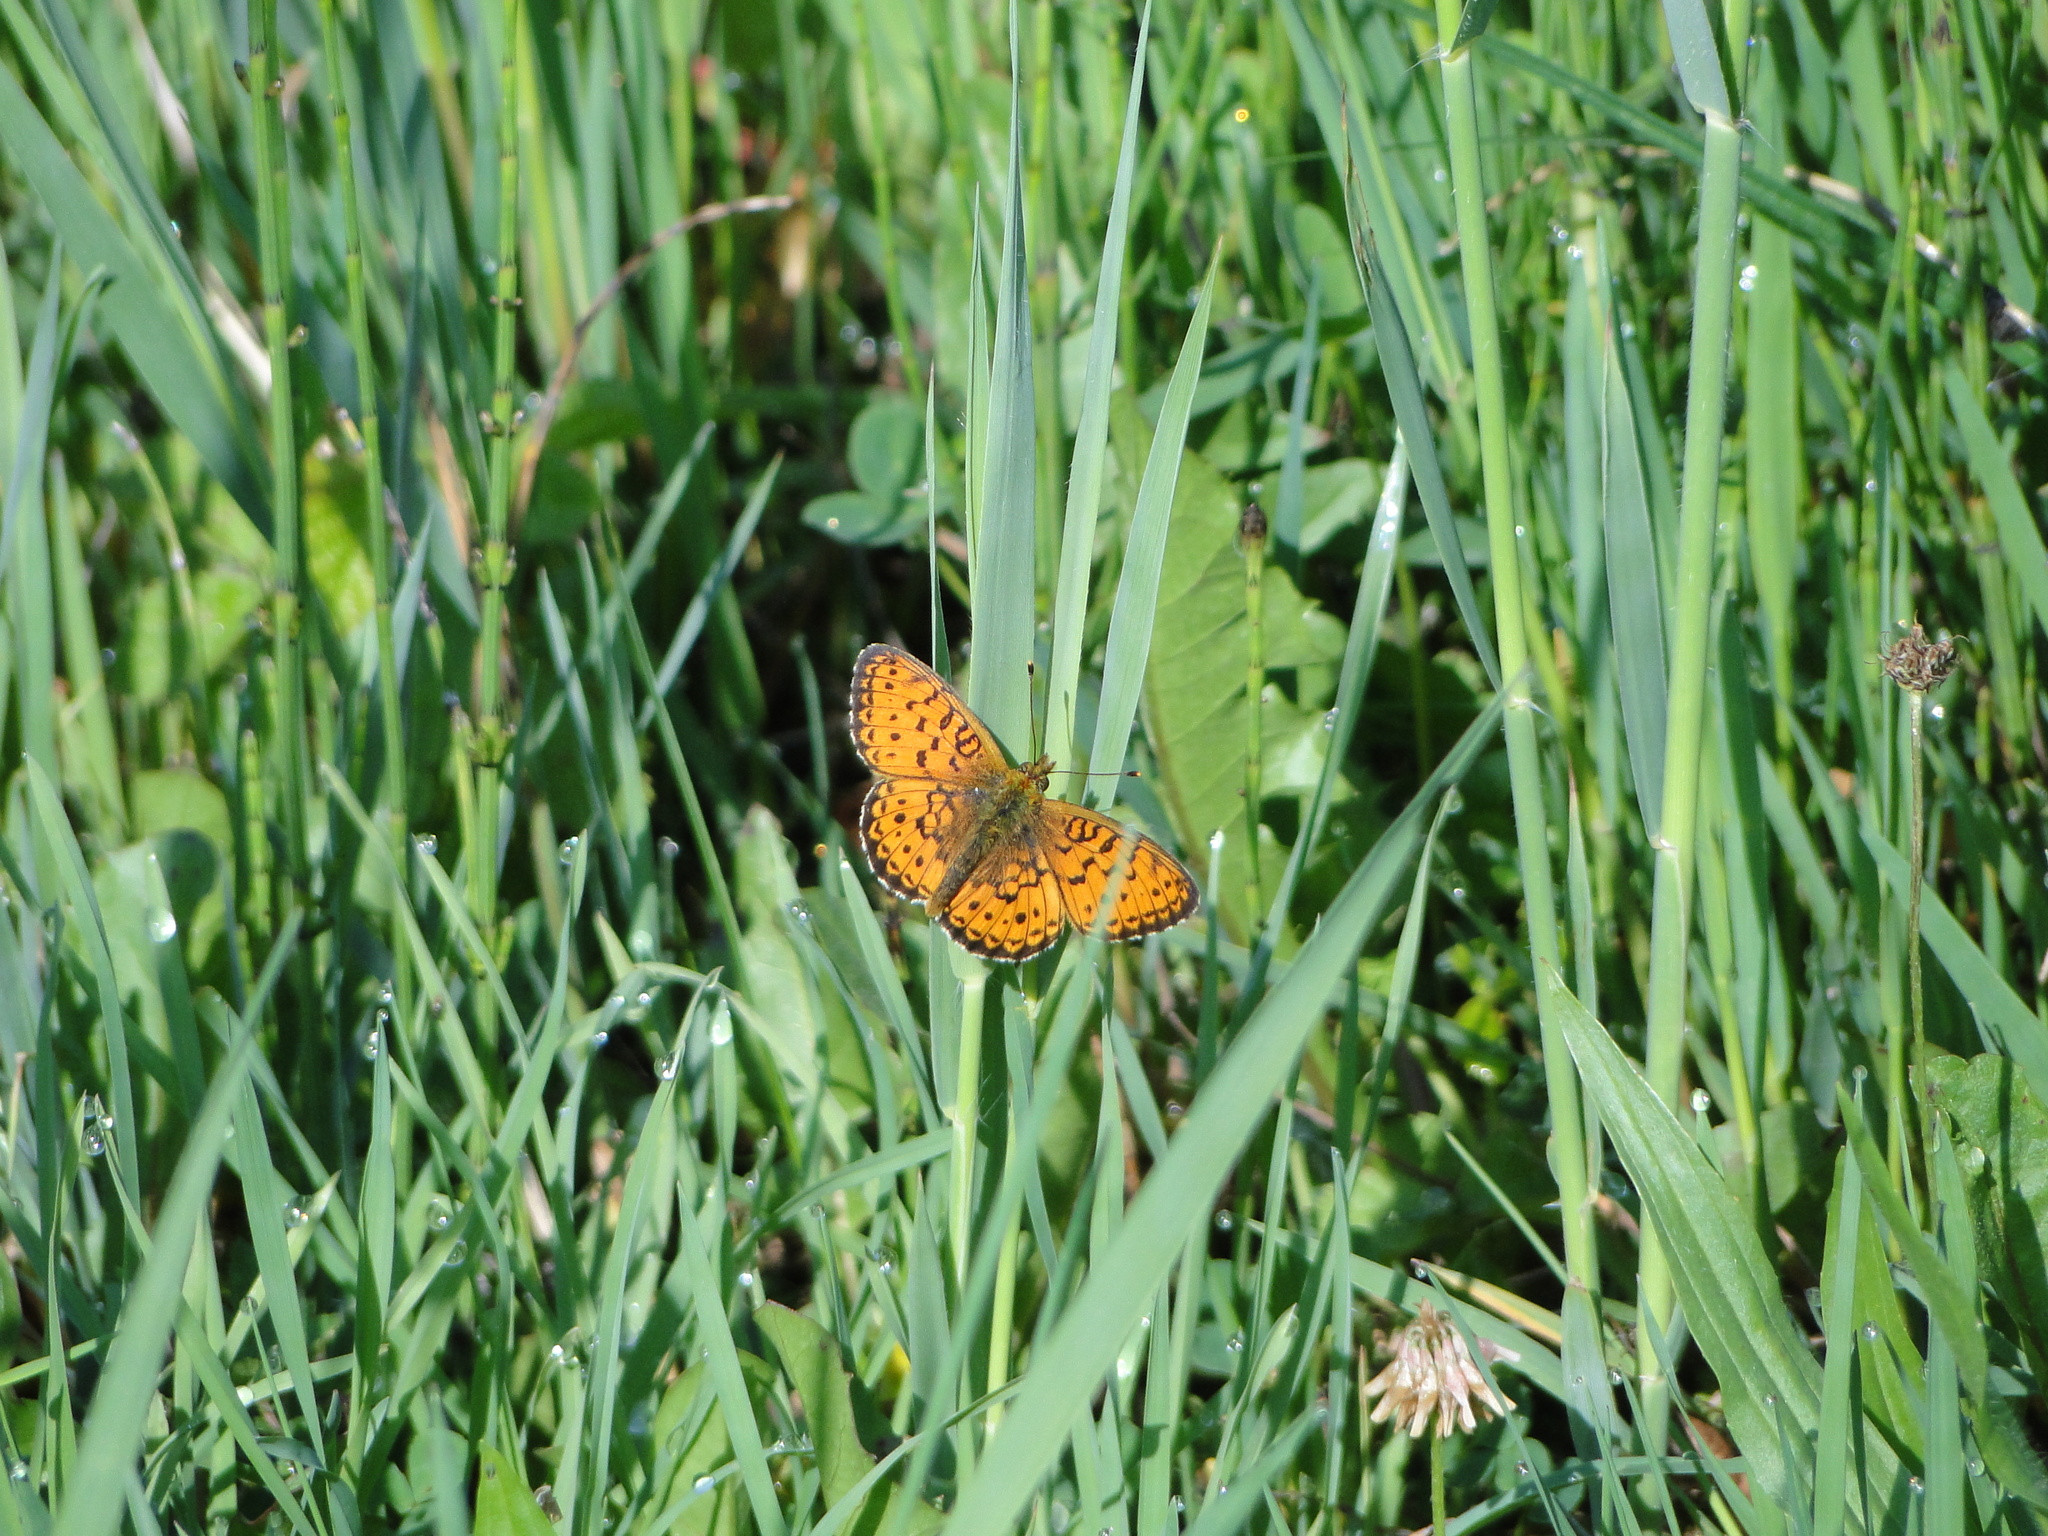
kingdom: Animalia
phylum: Arthropoda
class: Insecta
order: Lepidoptera
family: Nymphalidae
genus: Brenthis
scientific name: Brenthis ino
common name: Lesser marbled fritillary
